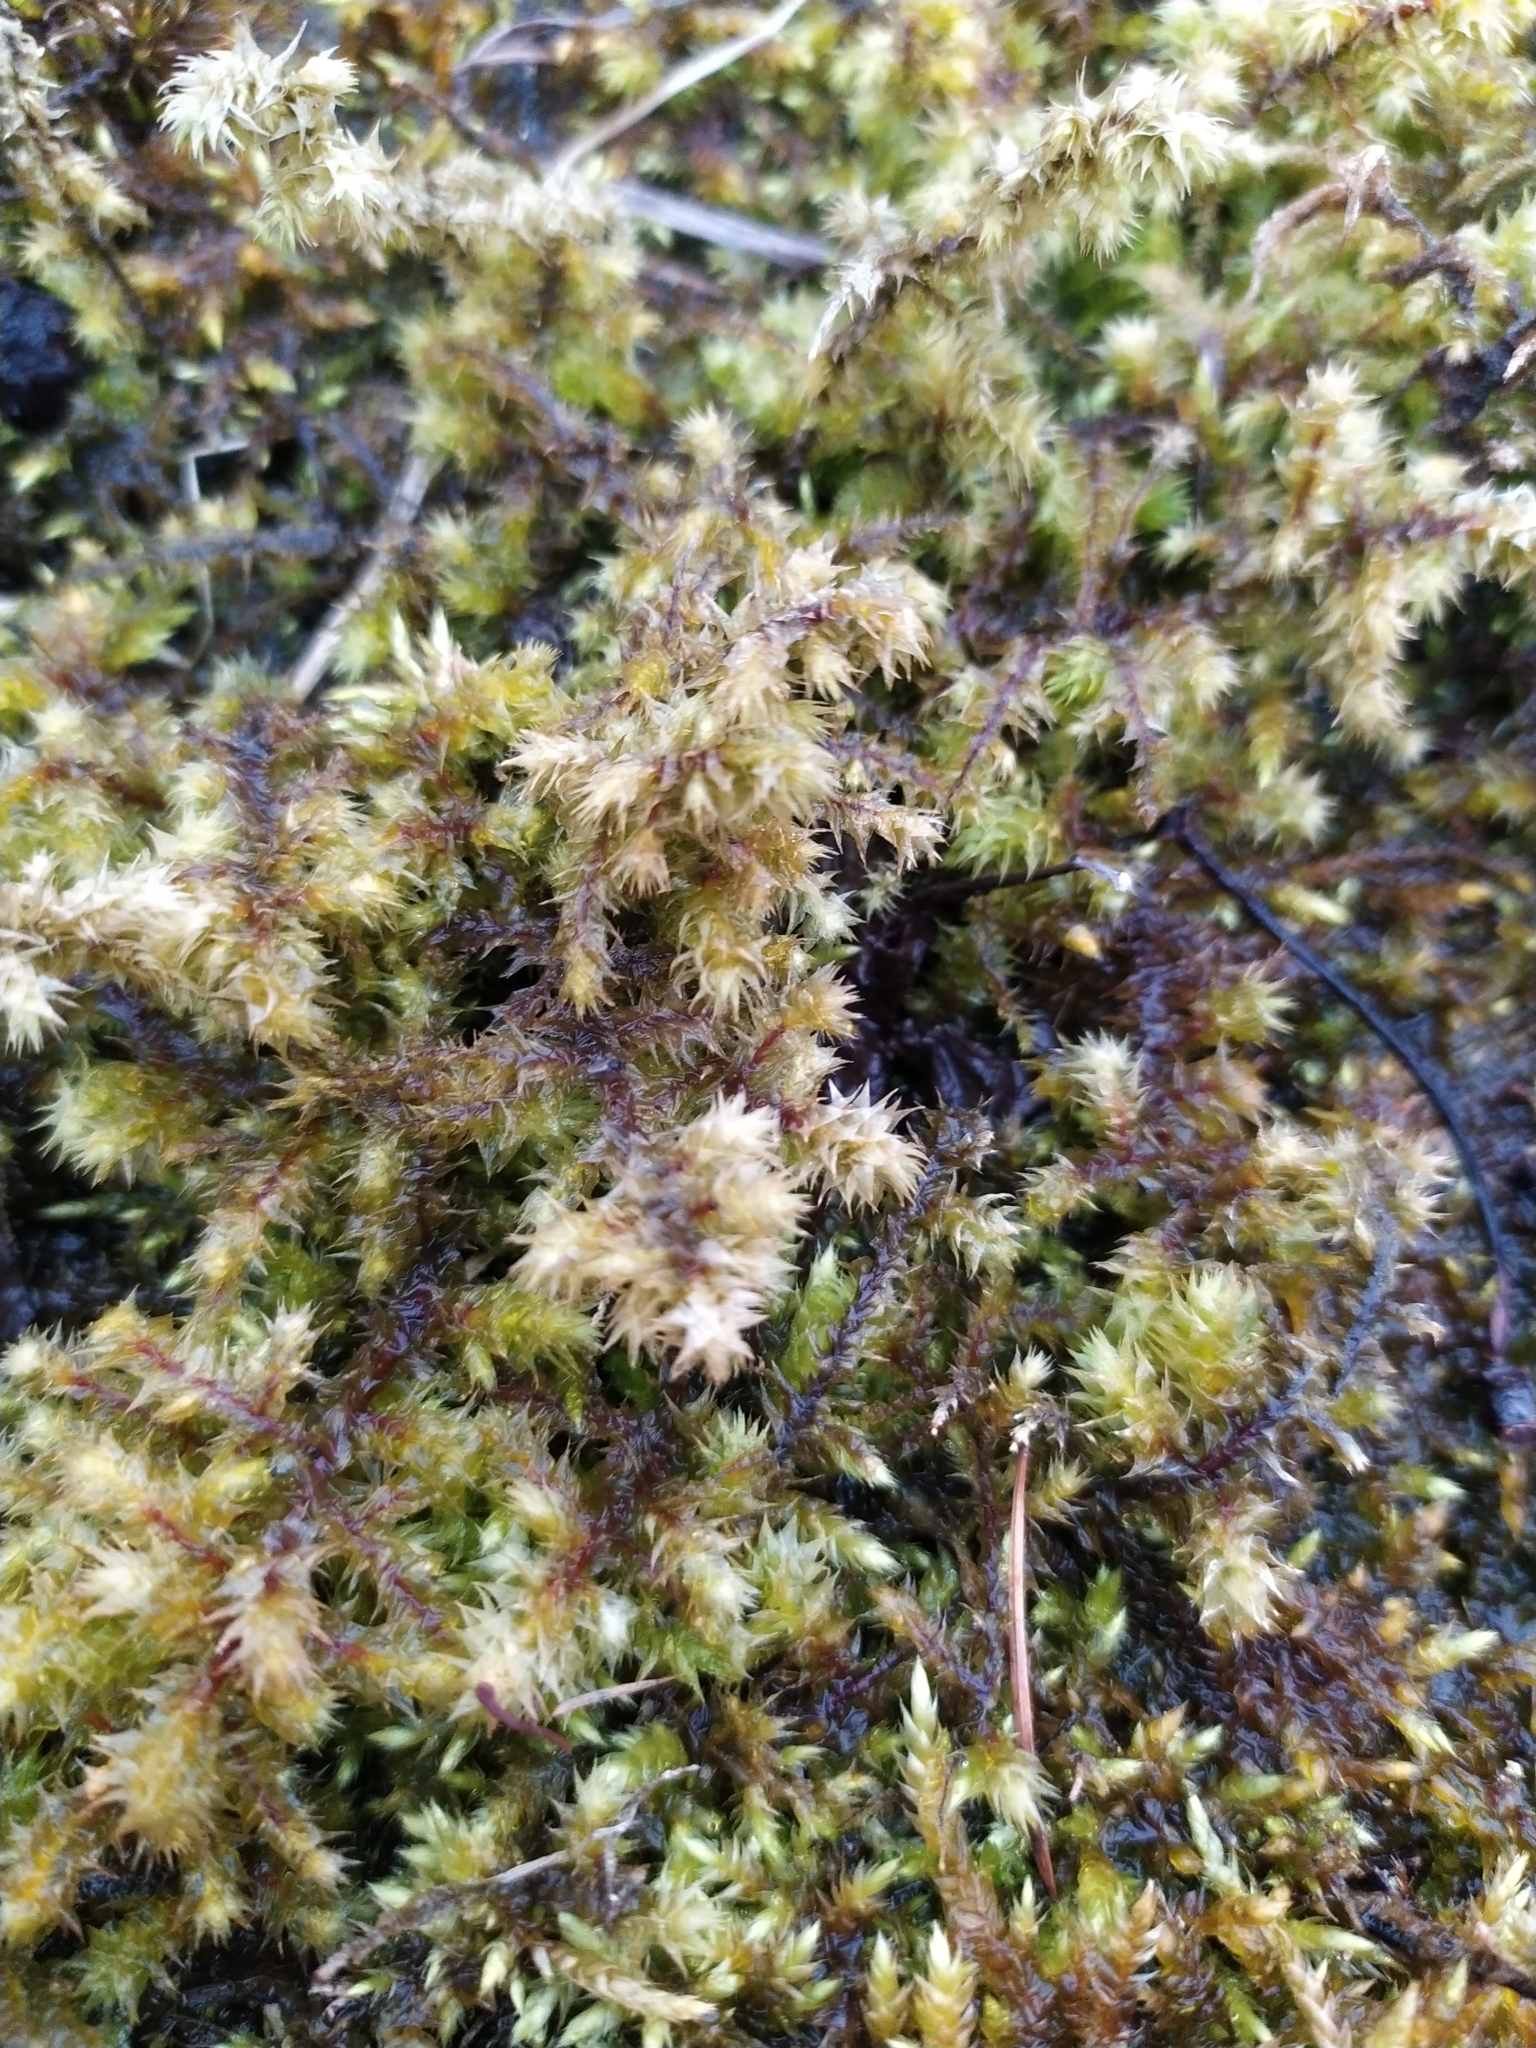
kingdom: Plantae
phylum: Bryophyta
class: Bryopsida
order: Hypnales
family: Hylocomiaceae
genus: Hylocomiadelphus
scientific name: Hylocomiadelphus triquetrus
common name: Rough goose neck moss
